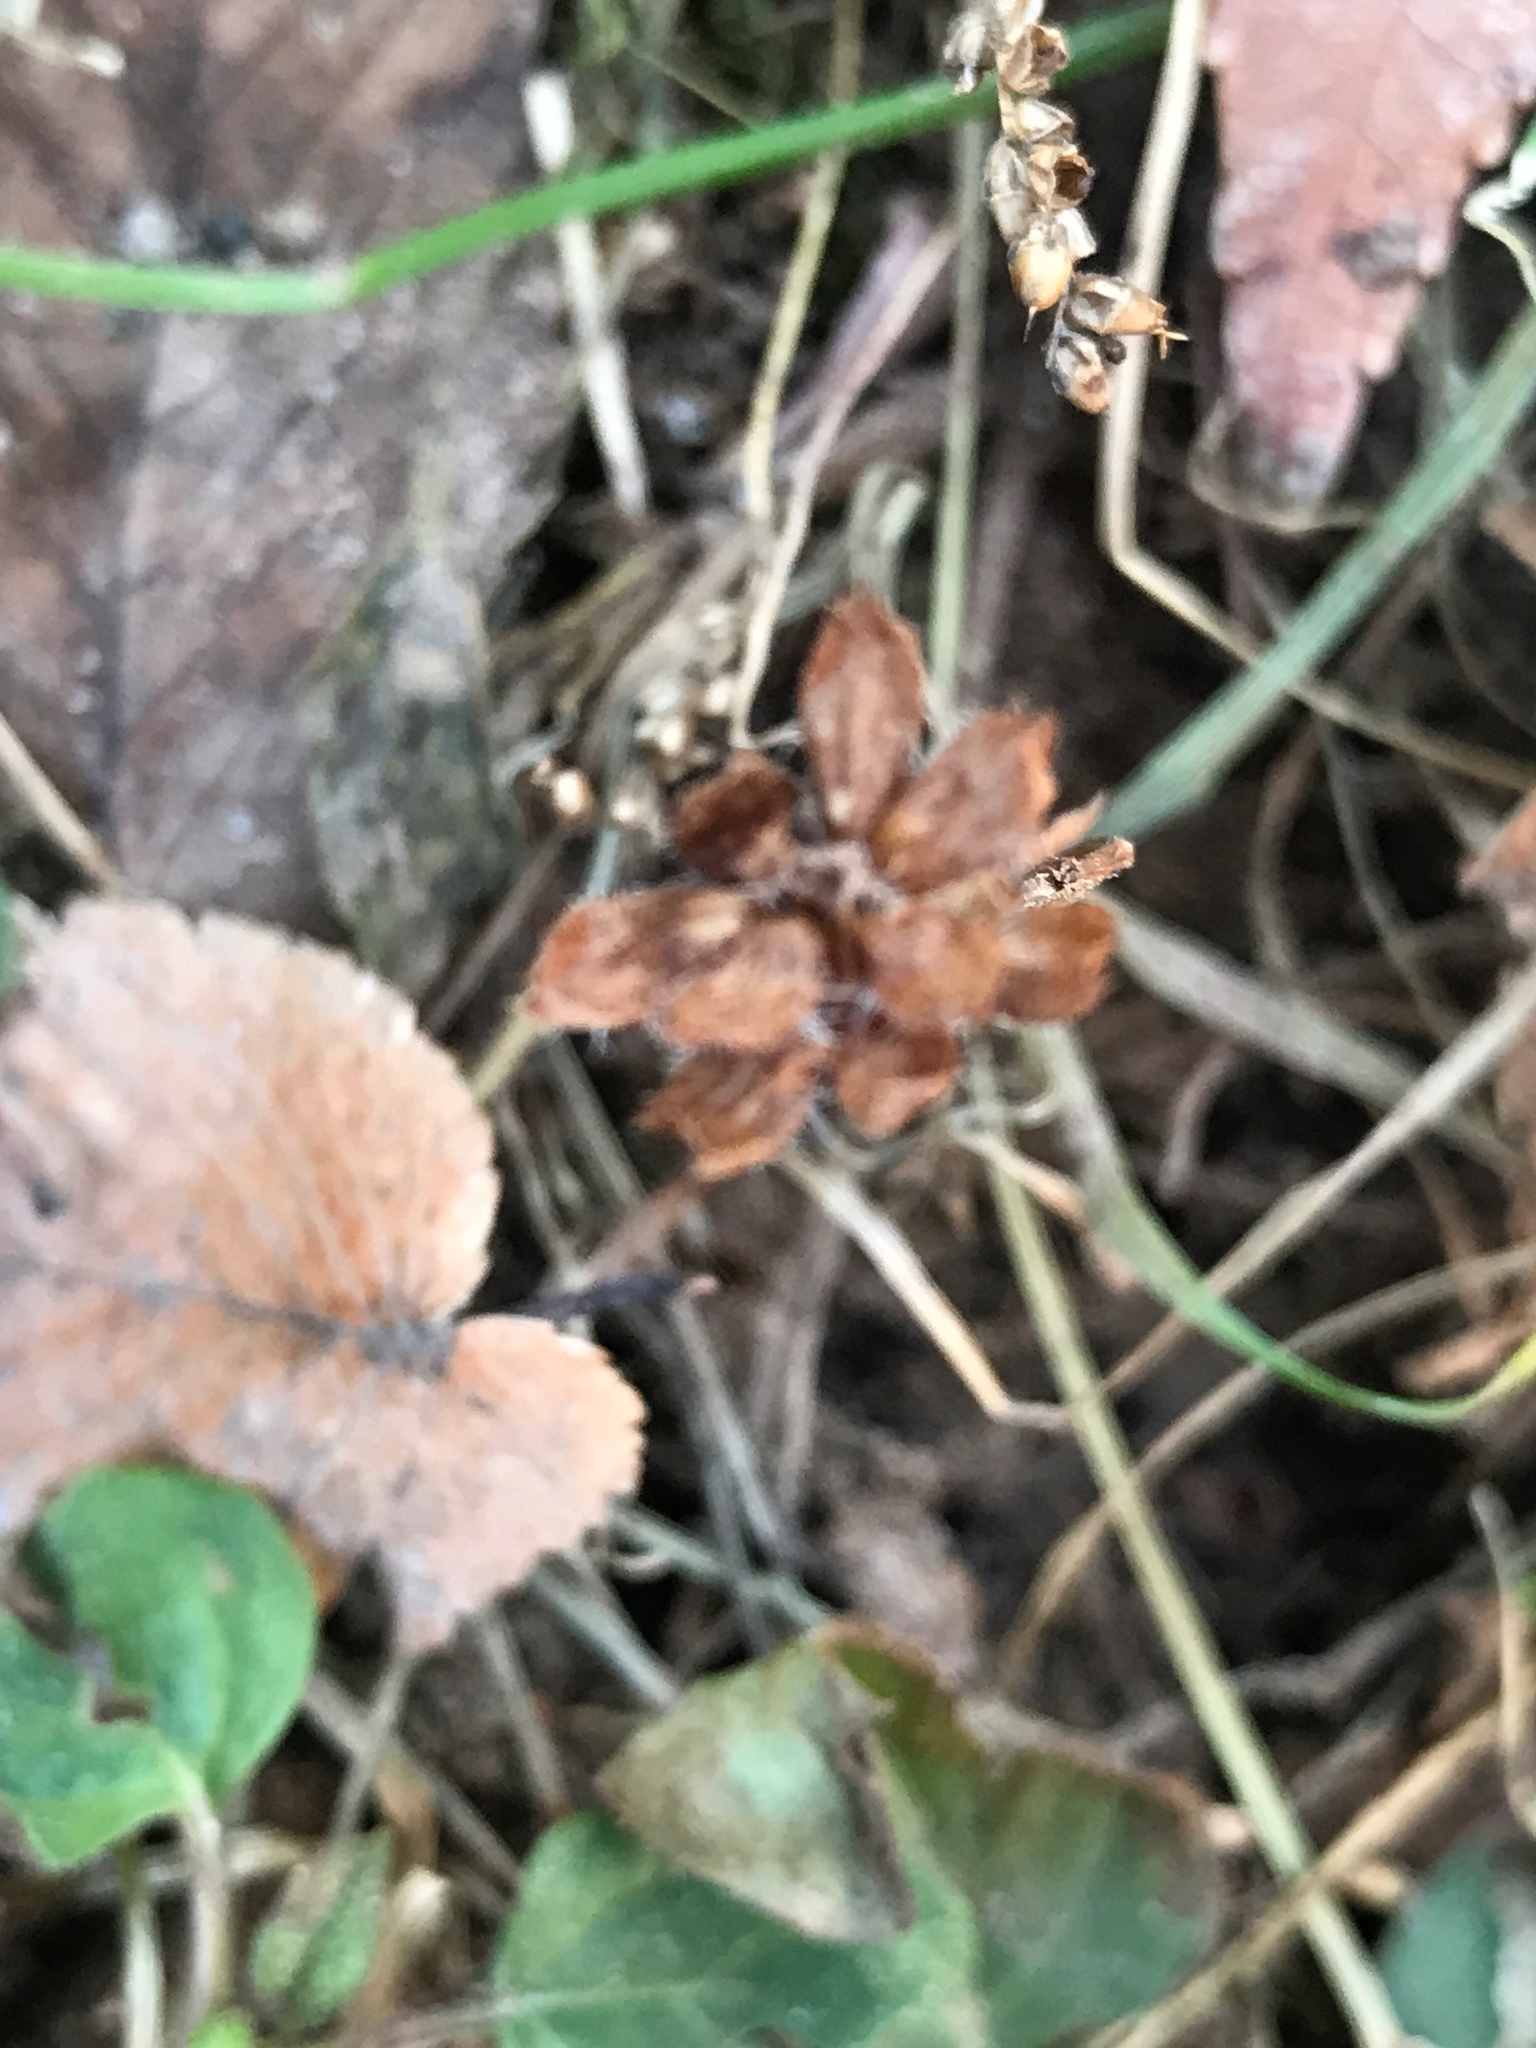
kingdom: Plantae
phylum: Tracheophyta
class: Magnoliopsida
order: Lamiales
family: Lamiaceae
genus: Prunella
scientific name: Prunella vulgaris
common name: Heal-all
